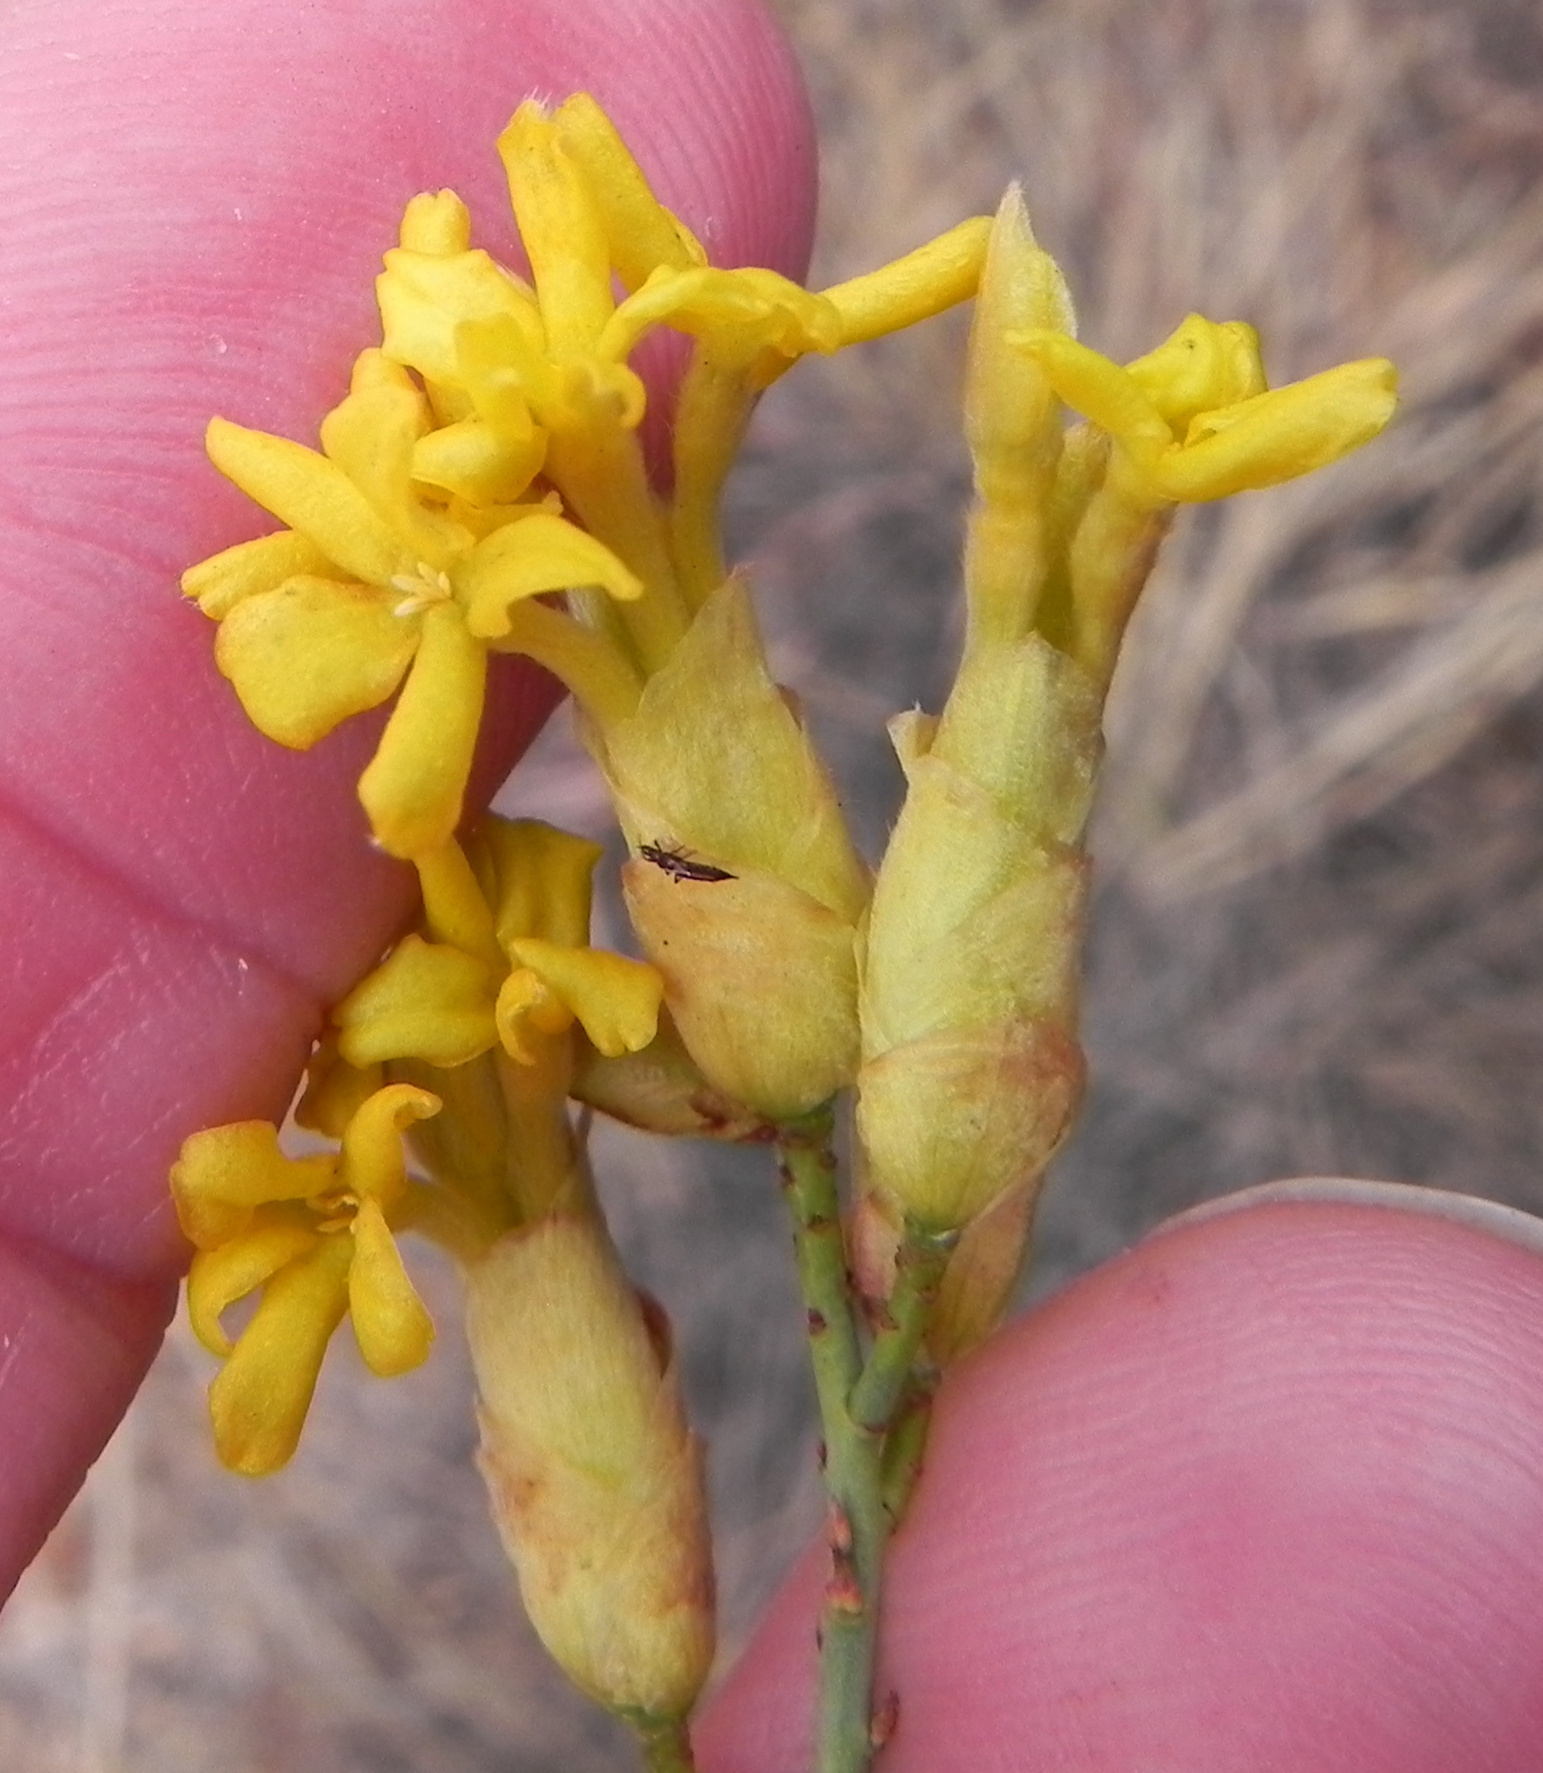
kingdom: Plantae
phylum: Tracheophyta
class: Magnoliopsida
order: Malvales
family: Thymelaeaceae
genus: Gnidia
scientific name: Gnidia polycephala
